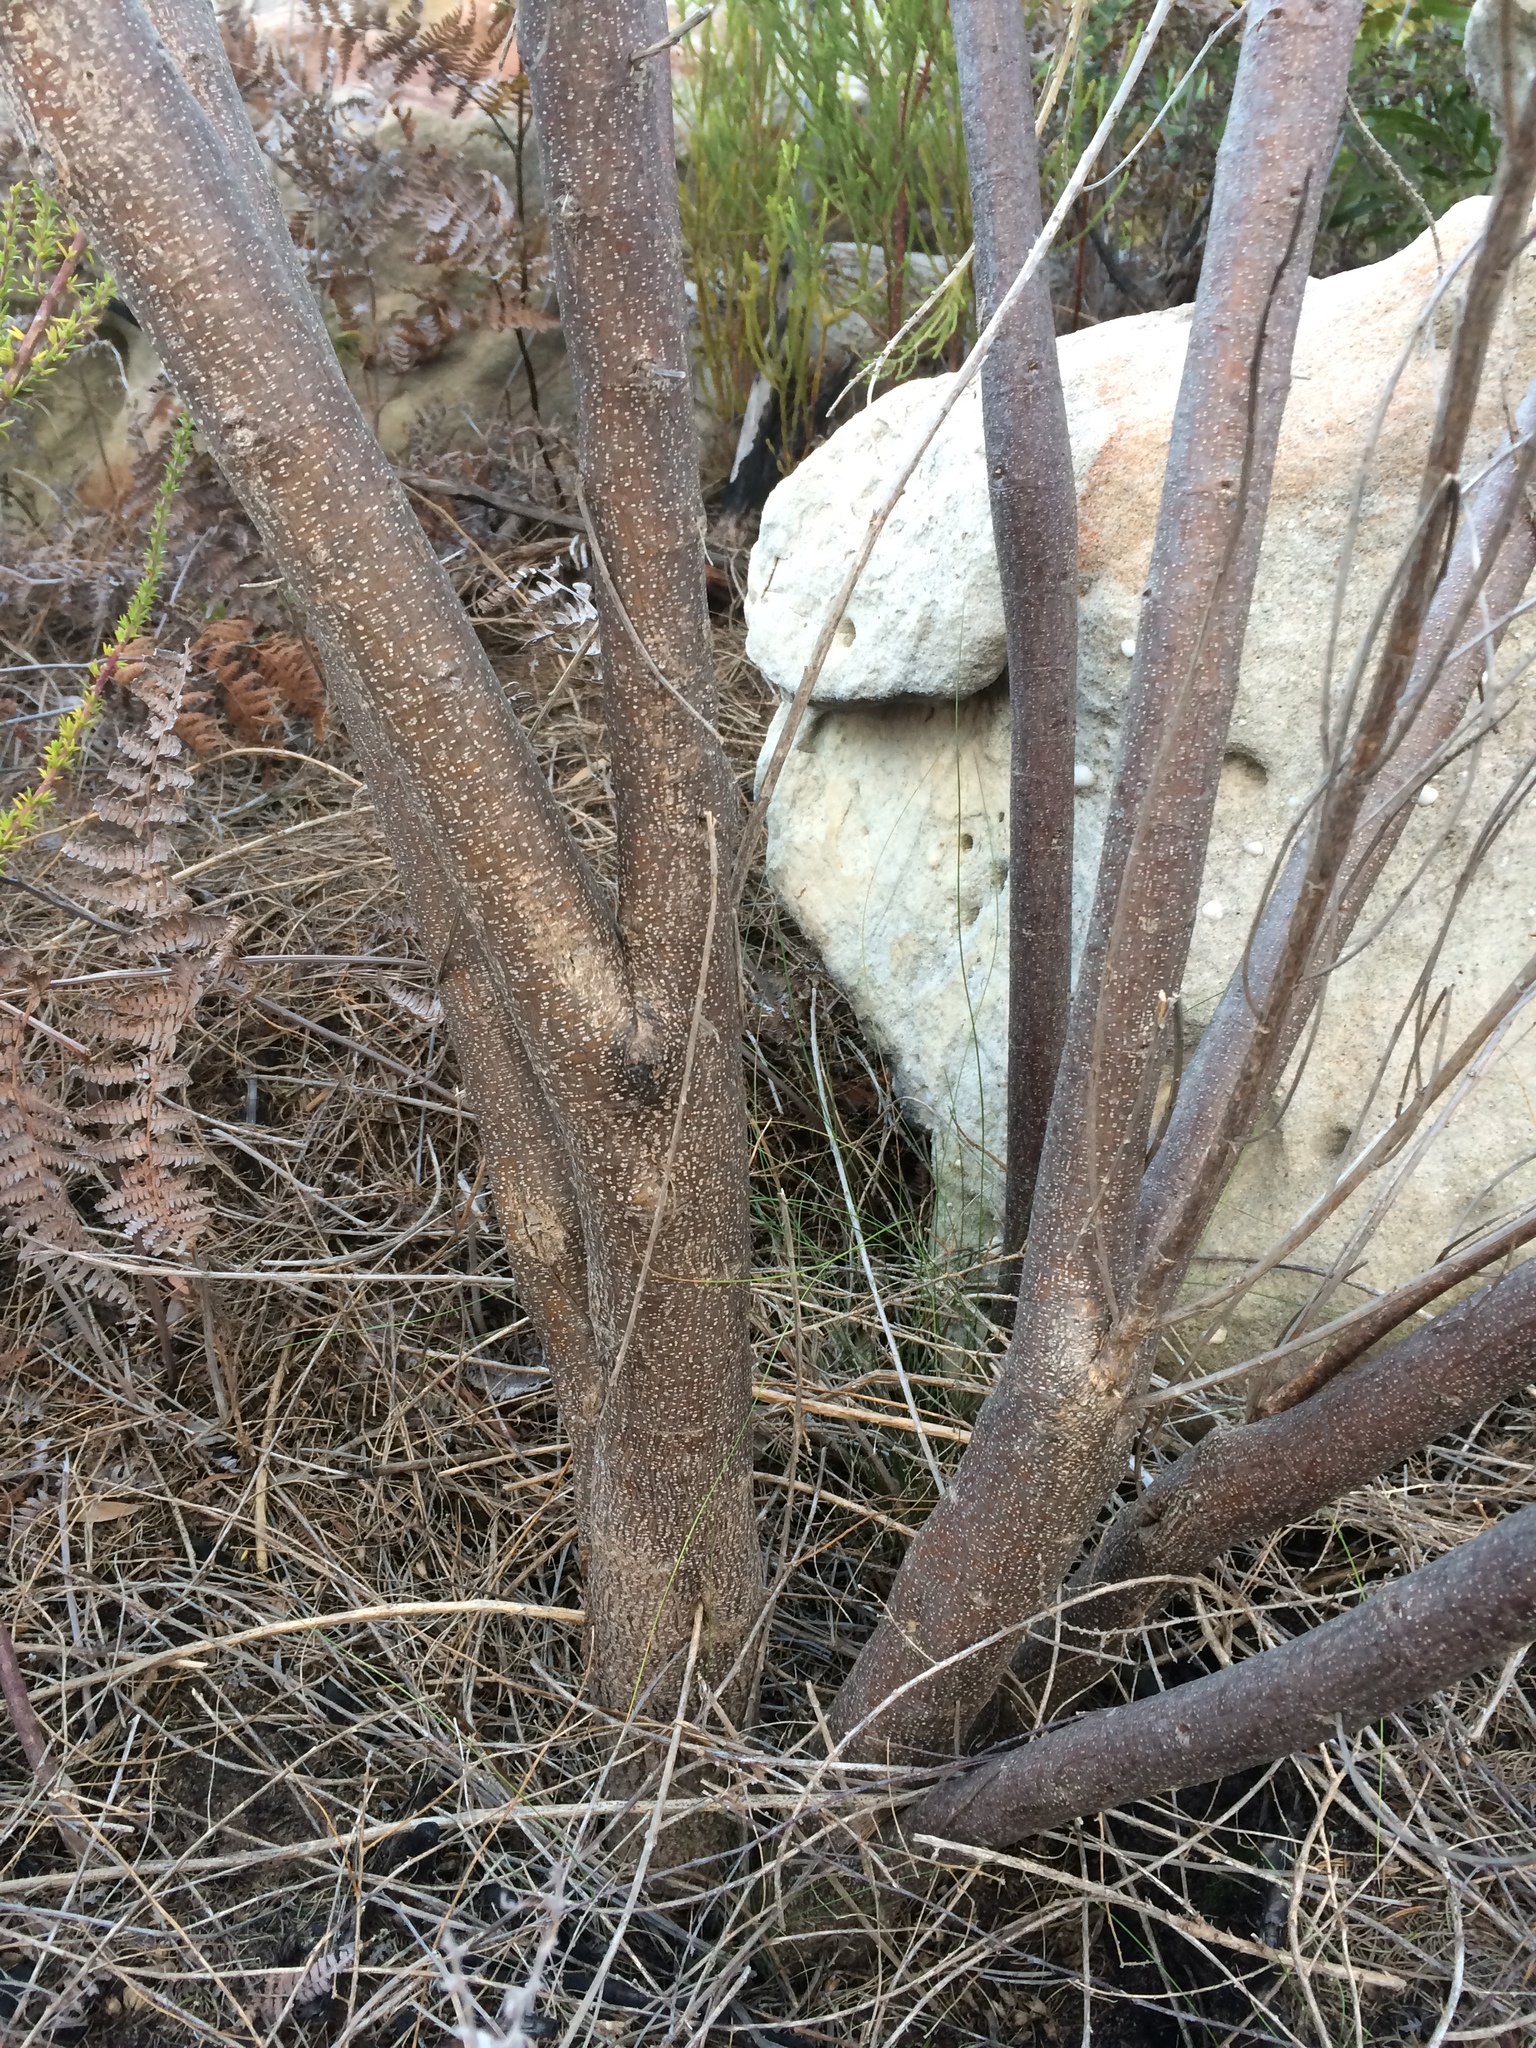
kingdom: Plantae
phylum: Tracheophyta
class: Magnoliopsida
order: Fabales
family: Fabaceae
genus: Psoralea
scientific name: Psoralea pinnata
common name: African scurfpea
